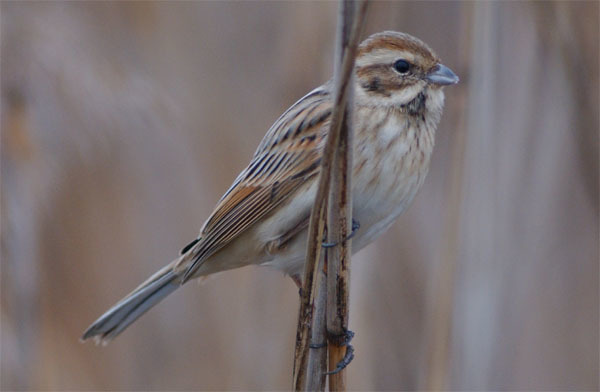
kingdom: Animalia
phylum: Chordata
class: Aves
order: Passeriformes
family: Emberizidae
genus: Emberiza
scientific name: Emberiza schoeniclus
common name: Reed bunting
